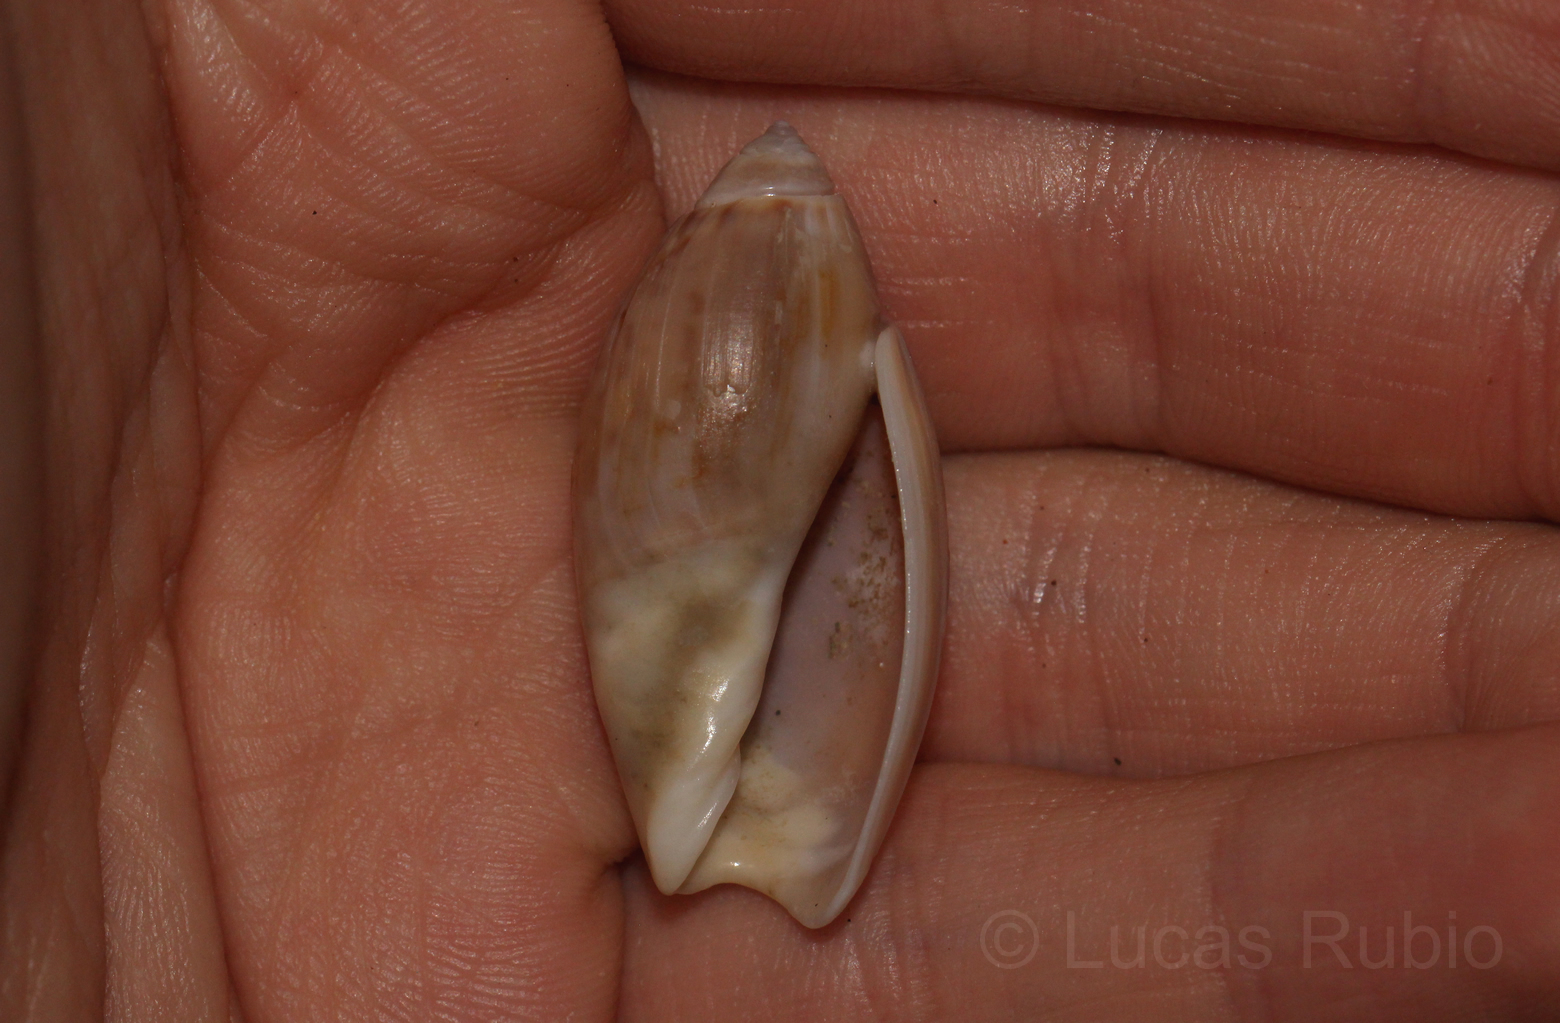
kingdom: Animalia
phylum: Mollusca
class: Gastropoda
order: Neogastropoda
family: Olividae
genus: Olivancillaria
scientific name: Olivancillaria orbignyi
